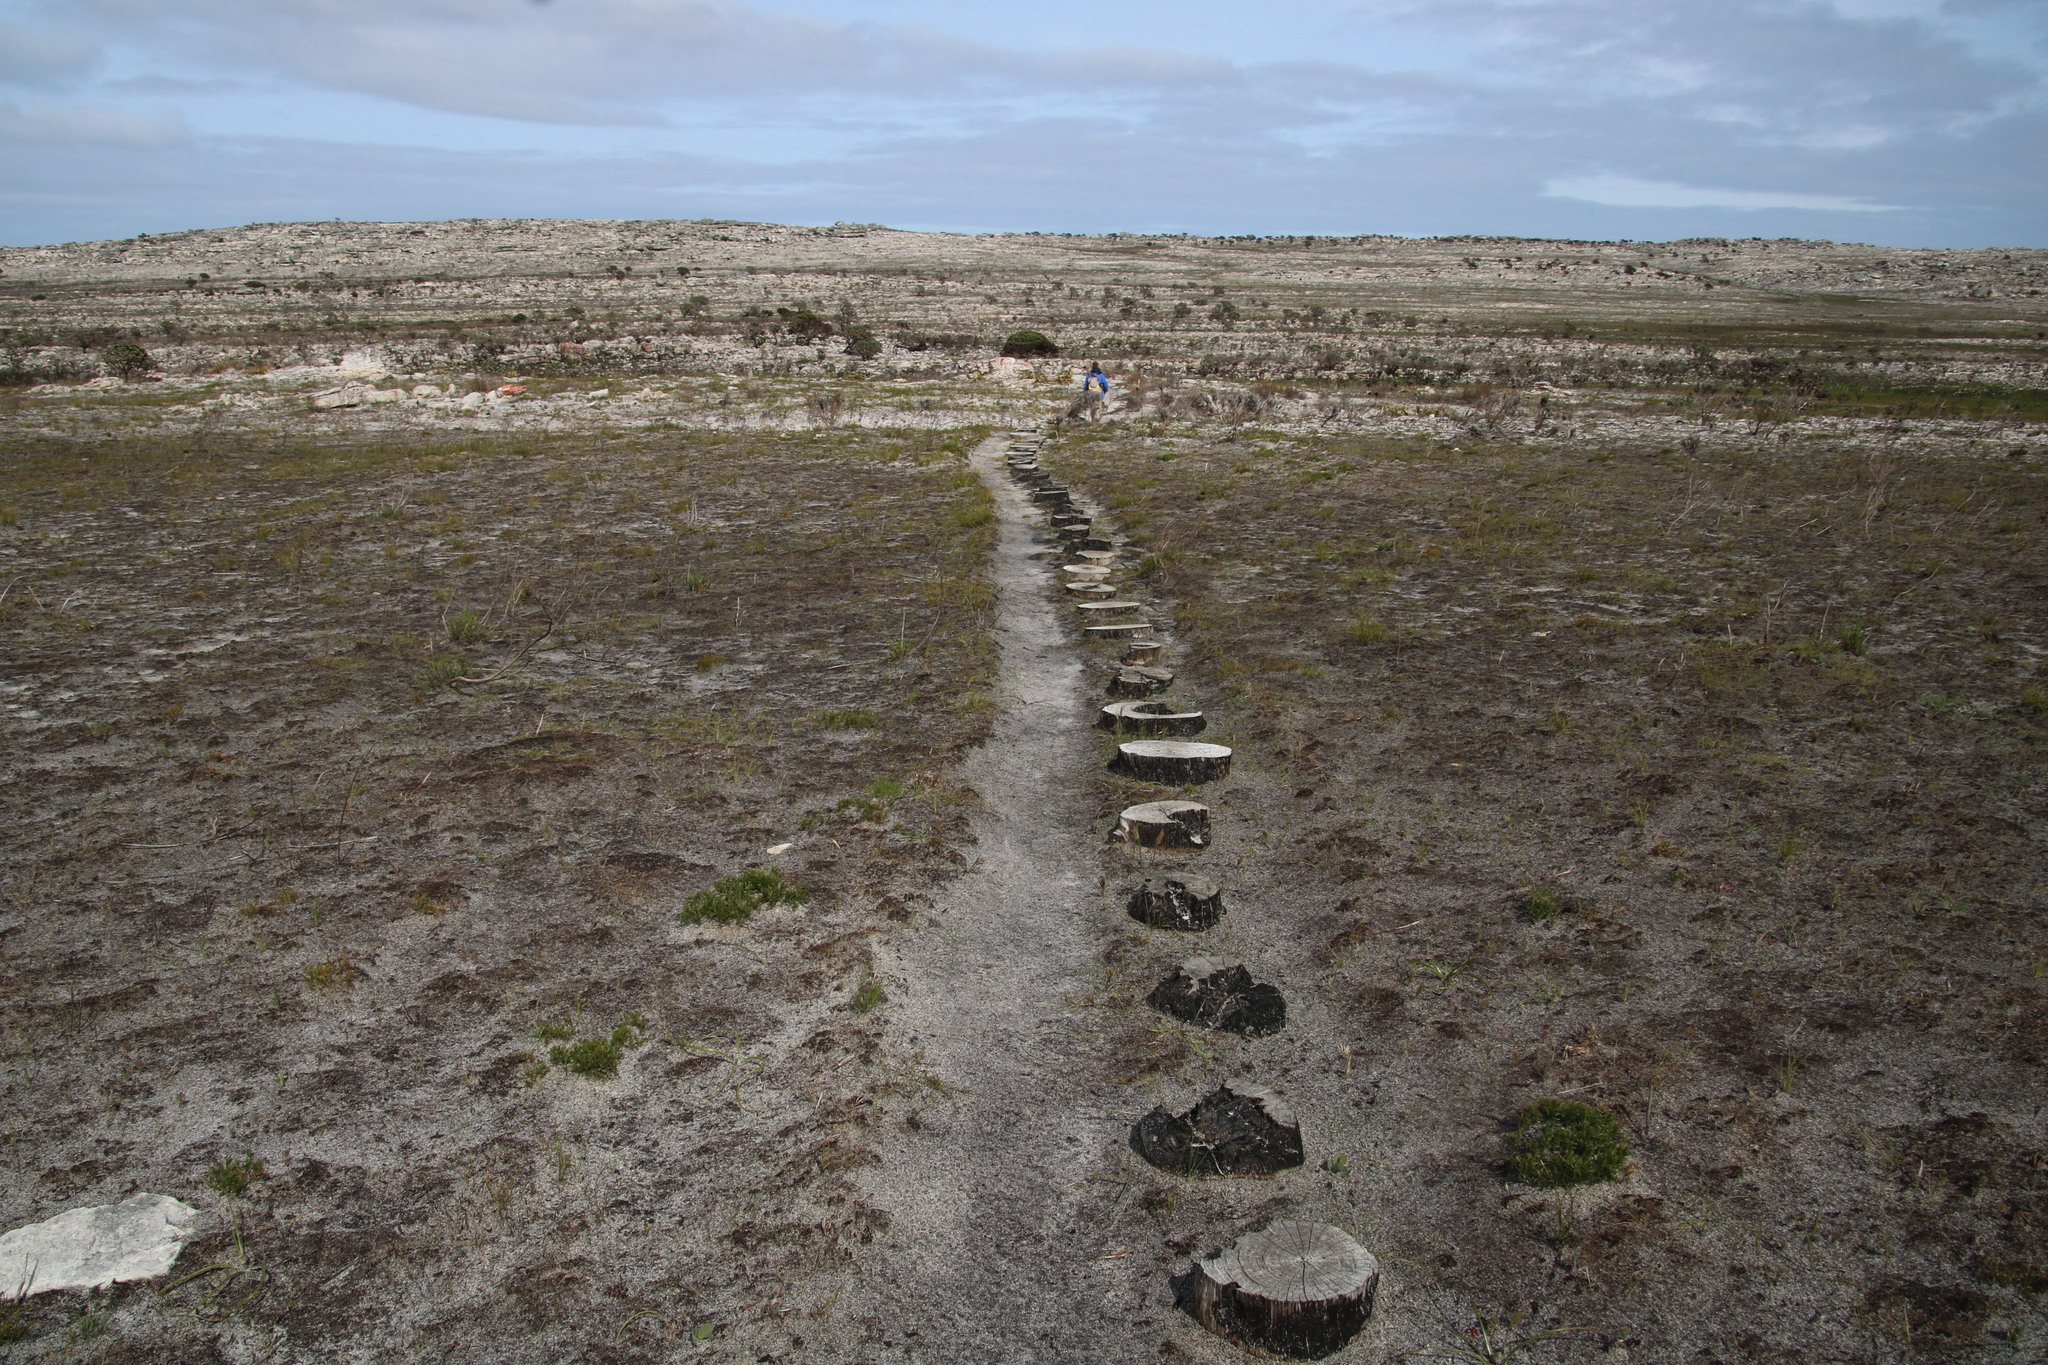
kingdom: Plantae
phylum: Tracheophyta
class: Magnoliopsida
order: Proteales
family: Proteaceae
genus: Serruria
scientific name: Serruria glomerata
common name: Cluster spiderhead
